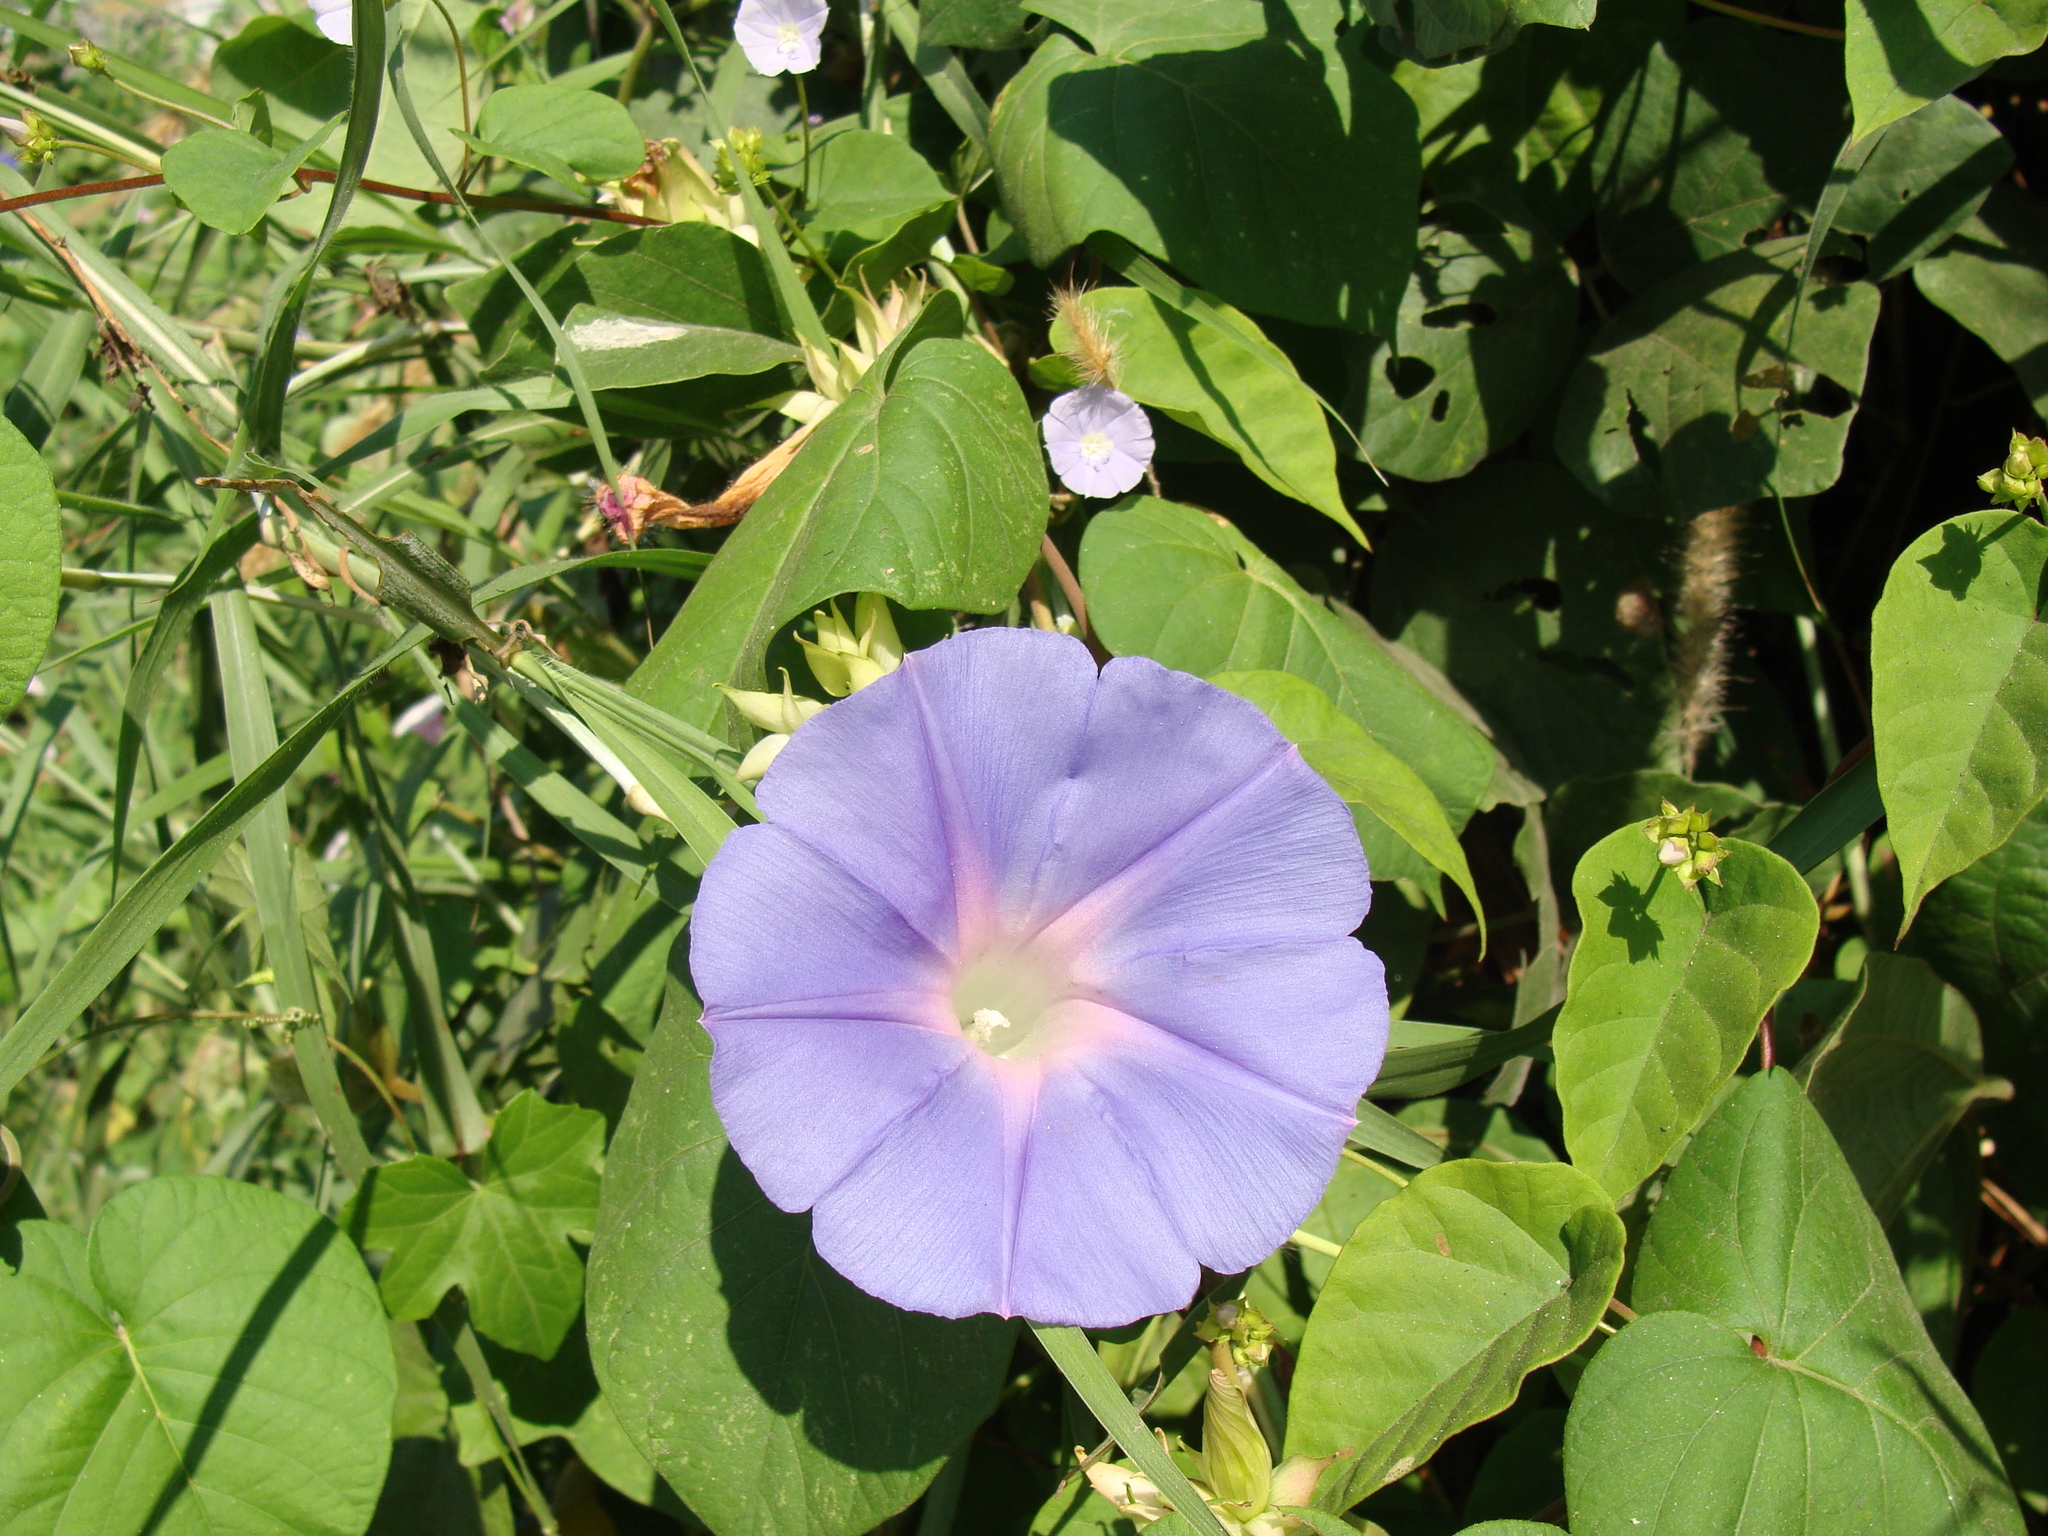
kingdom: Plantae
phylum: Tracheophyta
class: Magnoliopsida
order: Solanales
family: Convolvulaceae
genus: Ipomoea
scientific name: Ipomoea mitchelliae
